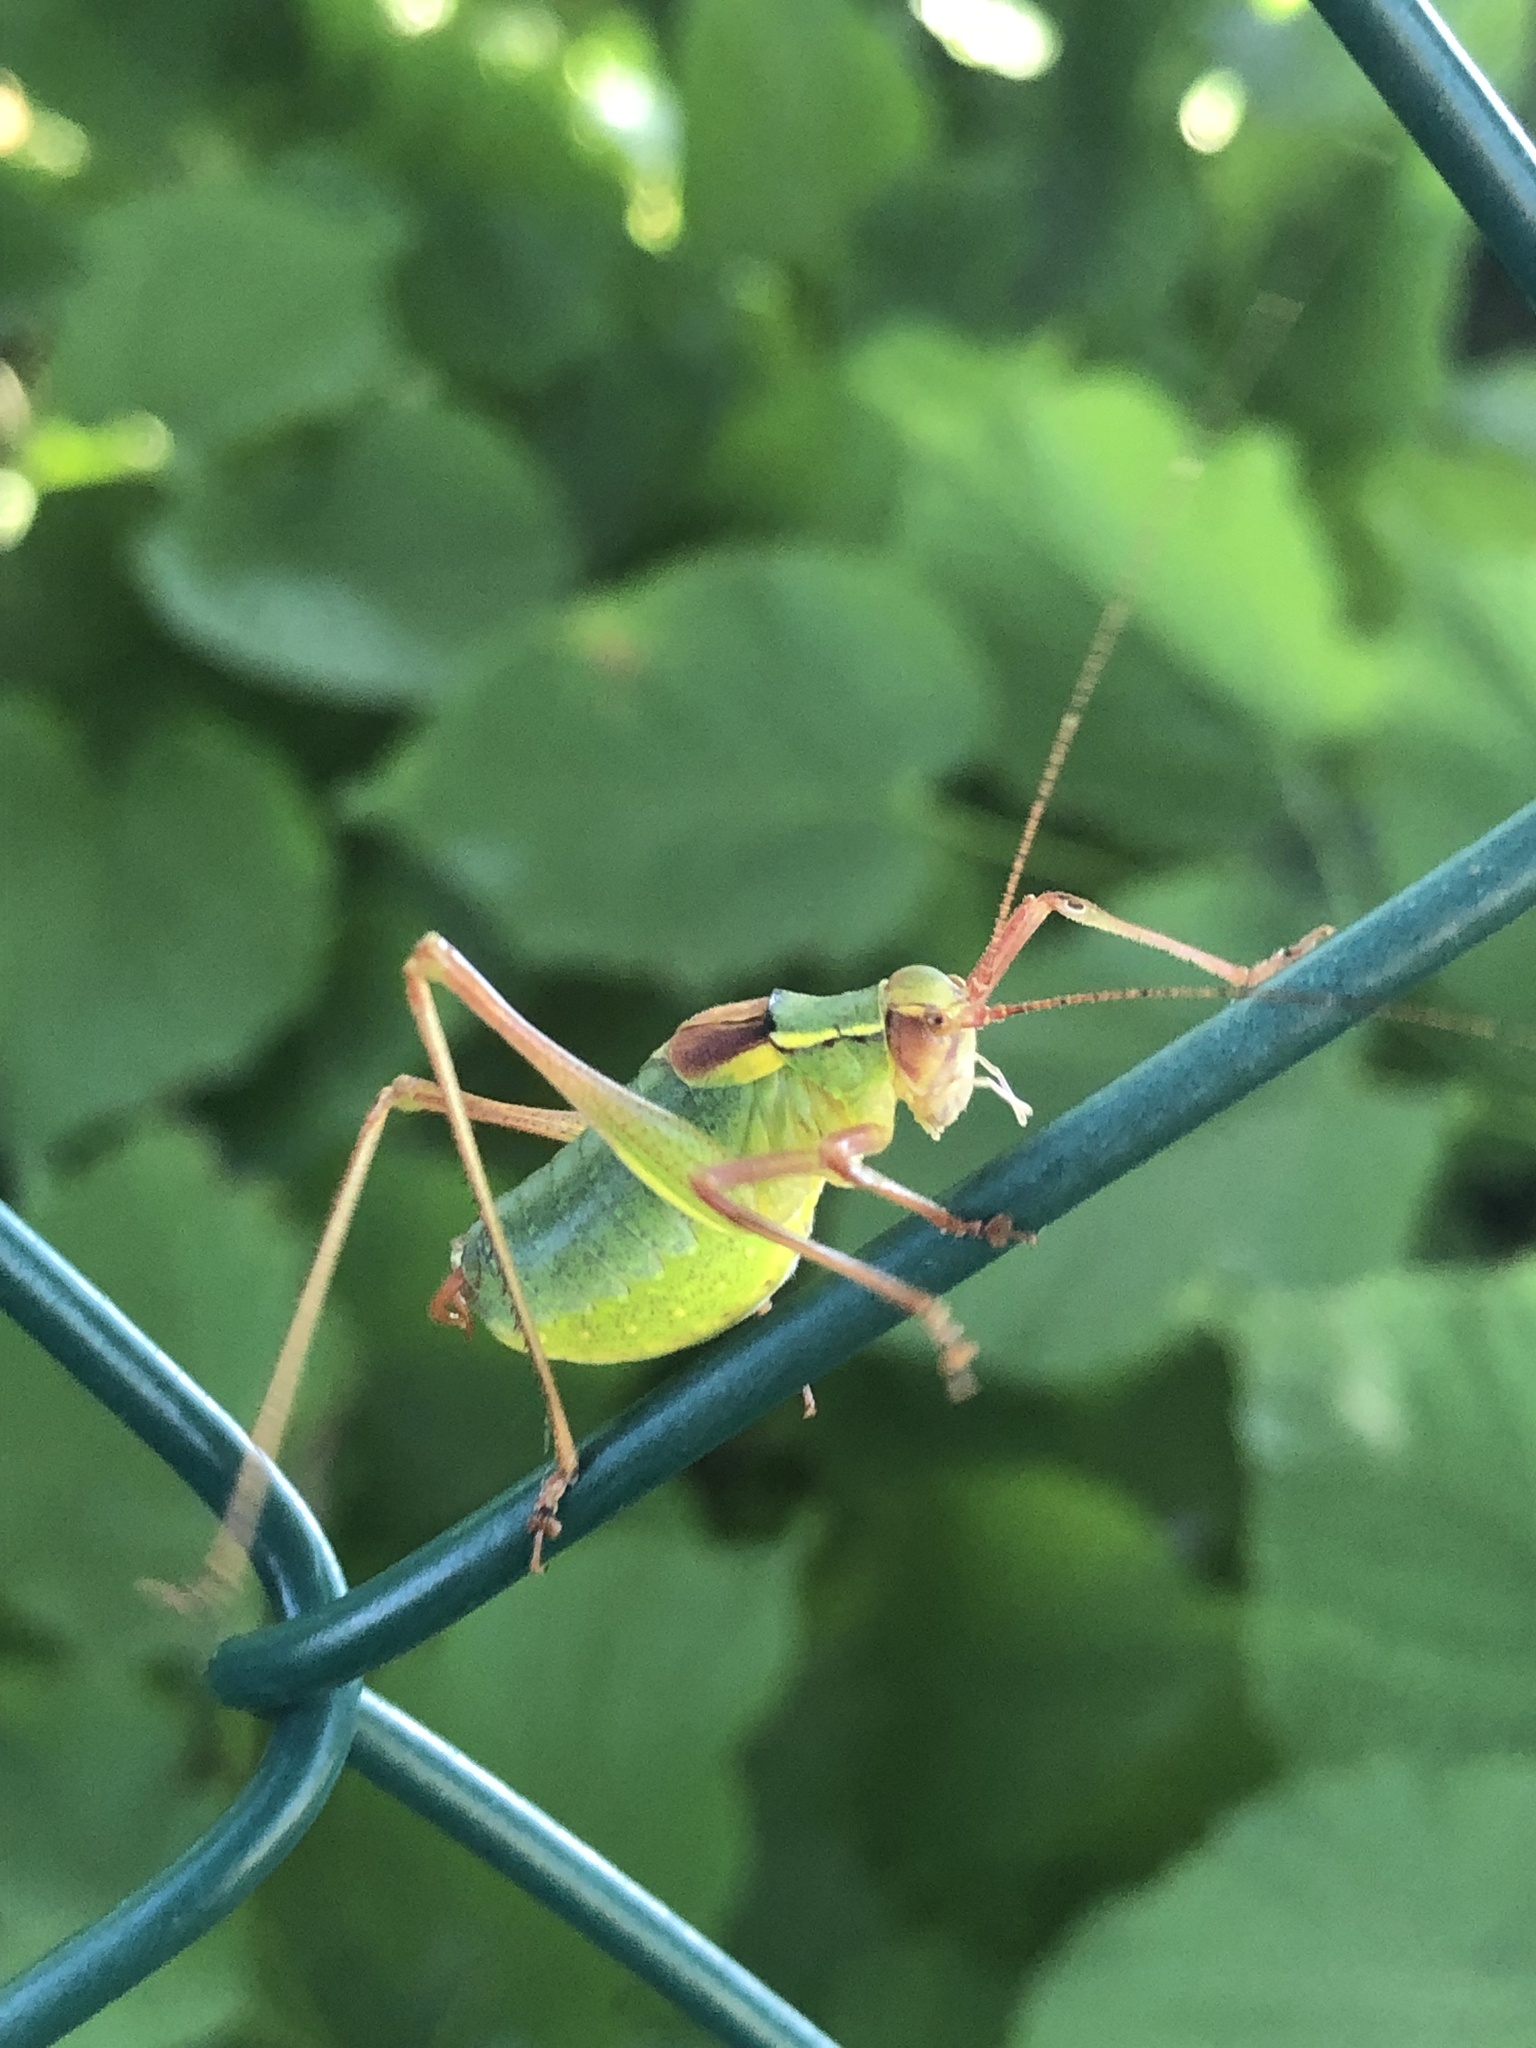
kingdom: Animalia
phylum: Arthropoda
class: Insecta
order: Orthoptera
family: Tettigoniidae
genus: Barbitistes
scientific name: Barbitistes serricauda
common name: Saw-tailed bush-cricket
